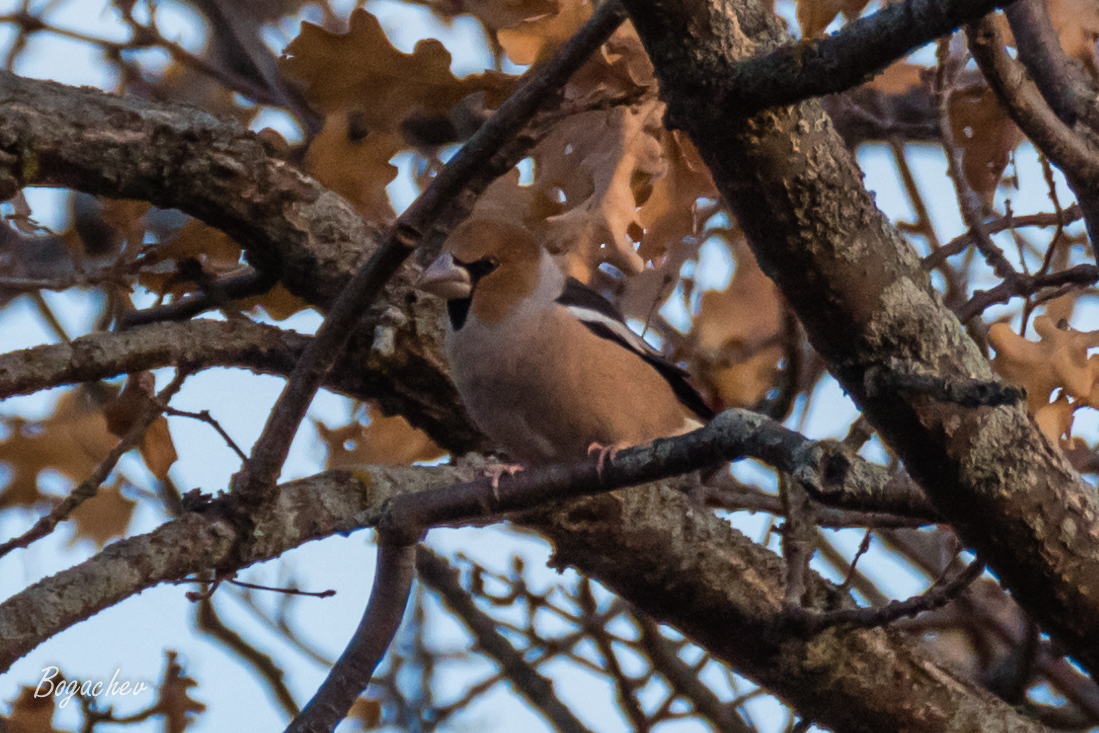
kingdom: Animalia
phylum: Chordata
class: Aves
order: Passeriformes
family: Fringillidae
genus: Coccothraustes
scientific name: Coccothraustes coccothraustes
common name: Hawfinch
